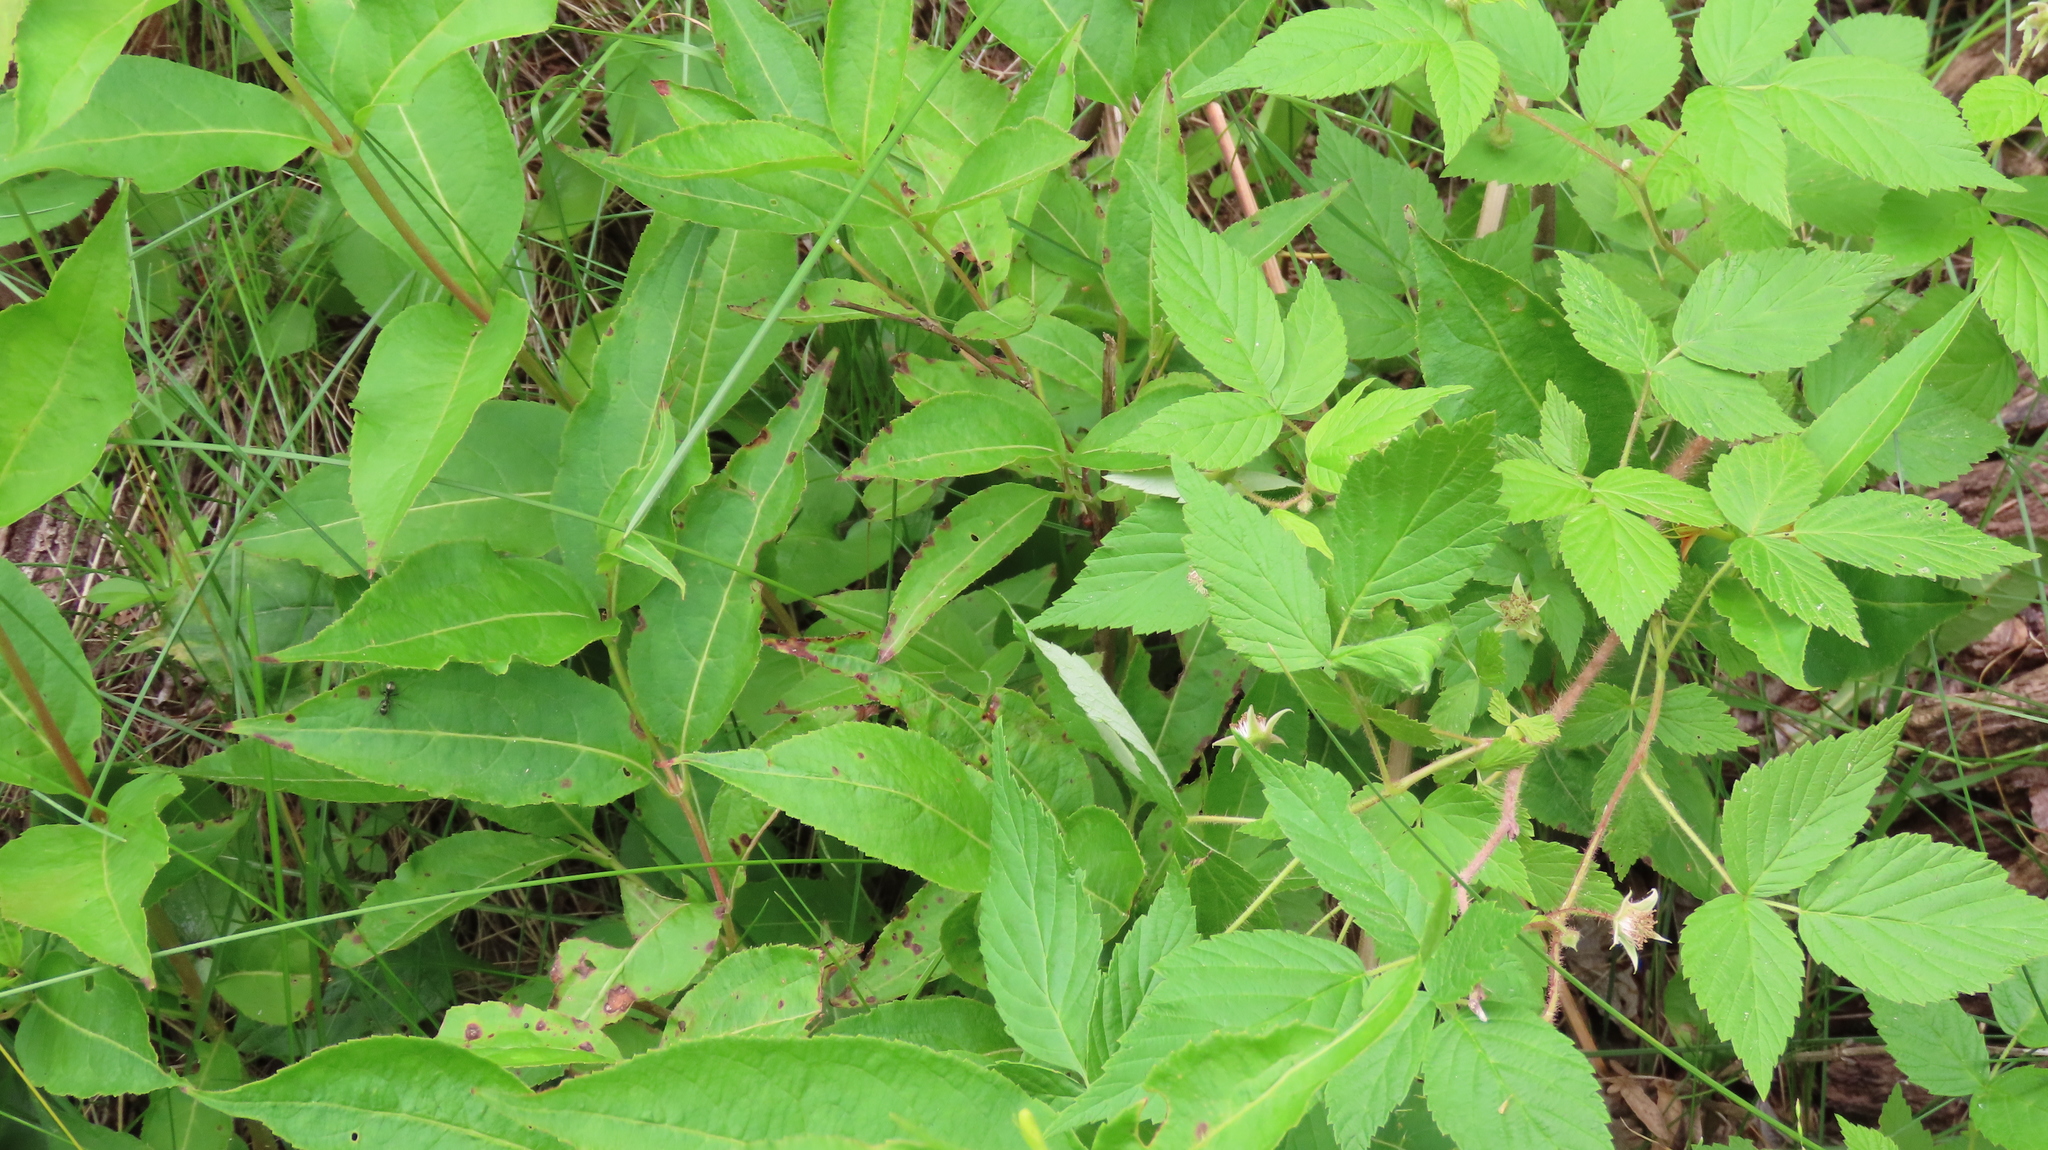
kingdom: Plantae
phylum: Tracheophyta
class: Magnoliopsida
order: Rosales
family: Rosaceae
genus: Rubus
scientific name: Rubus idaeus
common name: Raspberry
